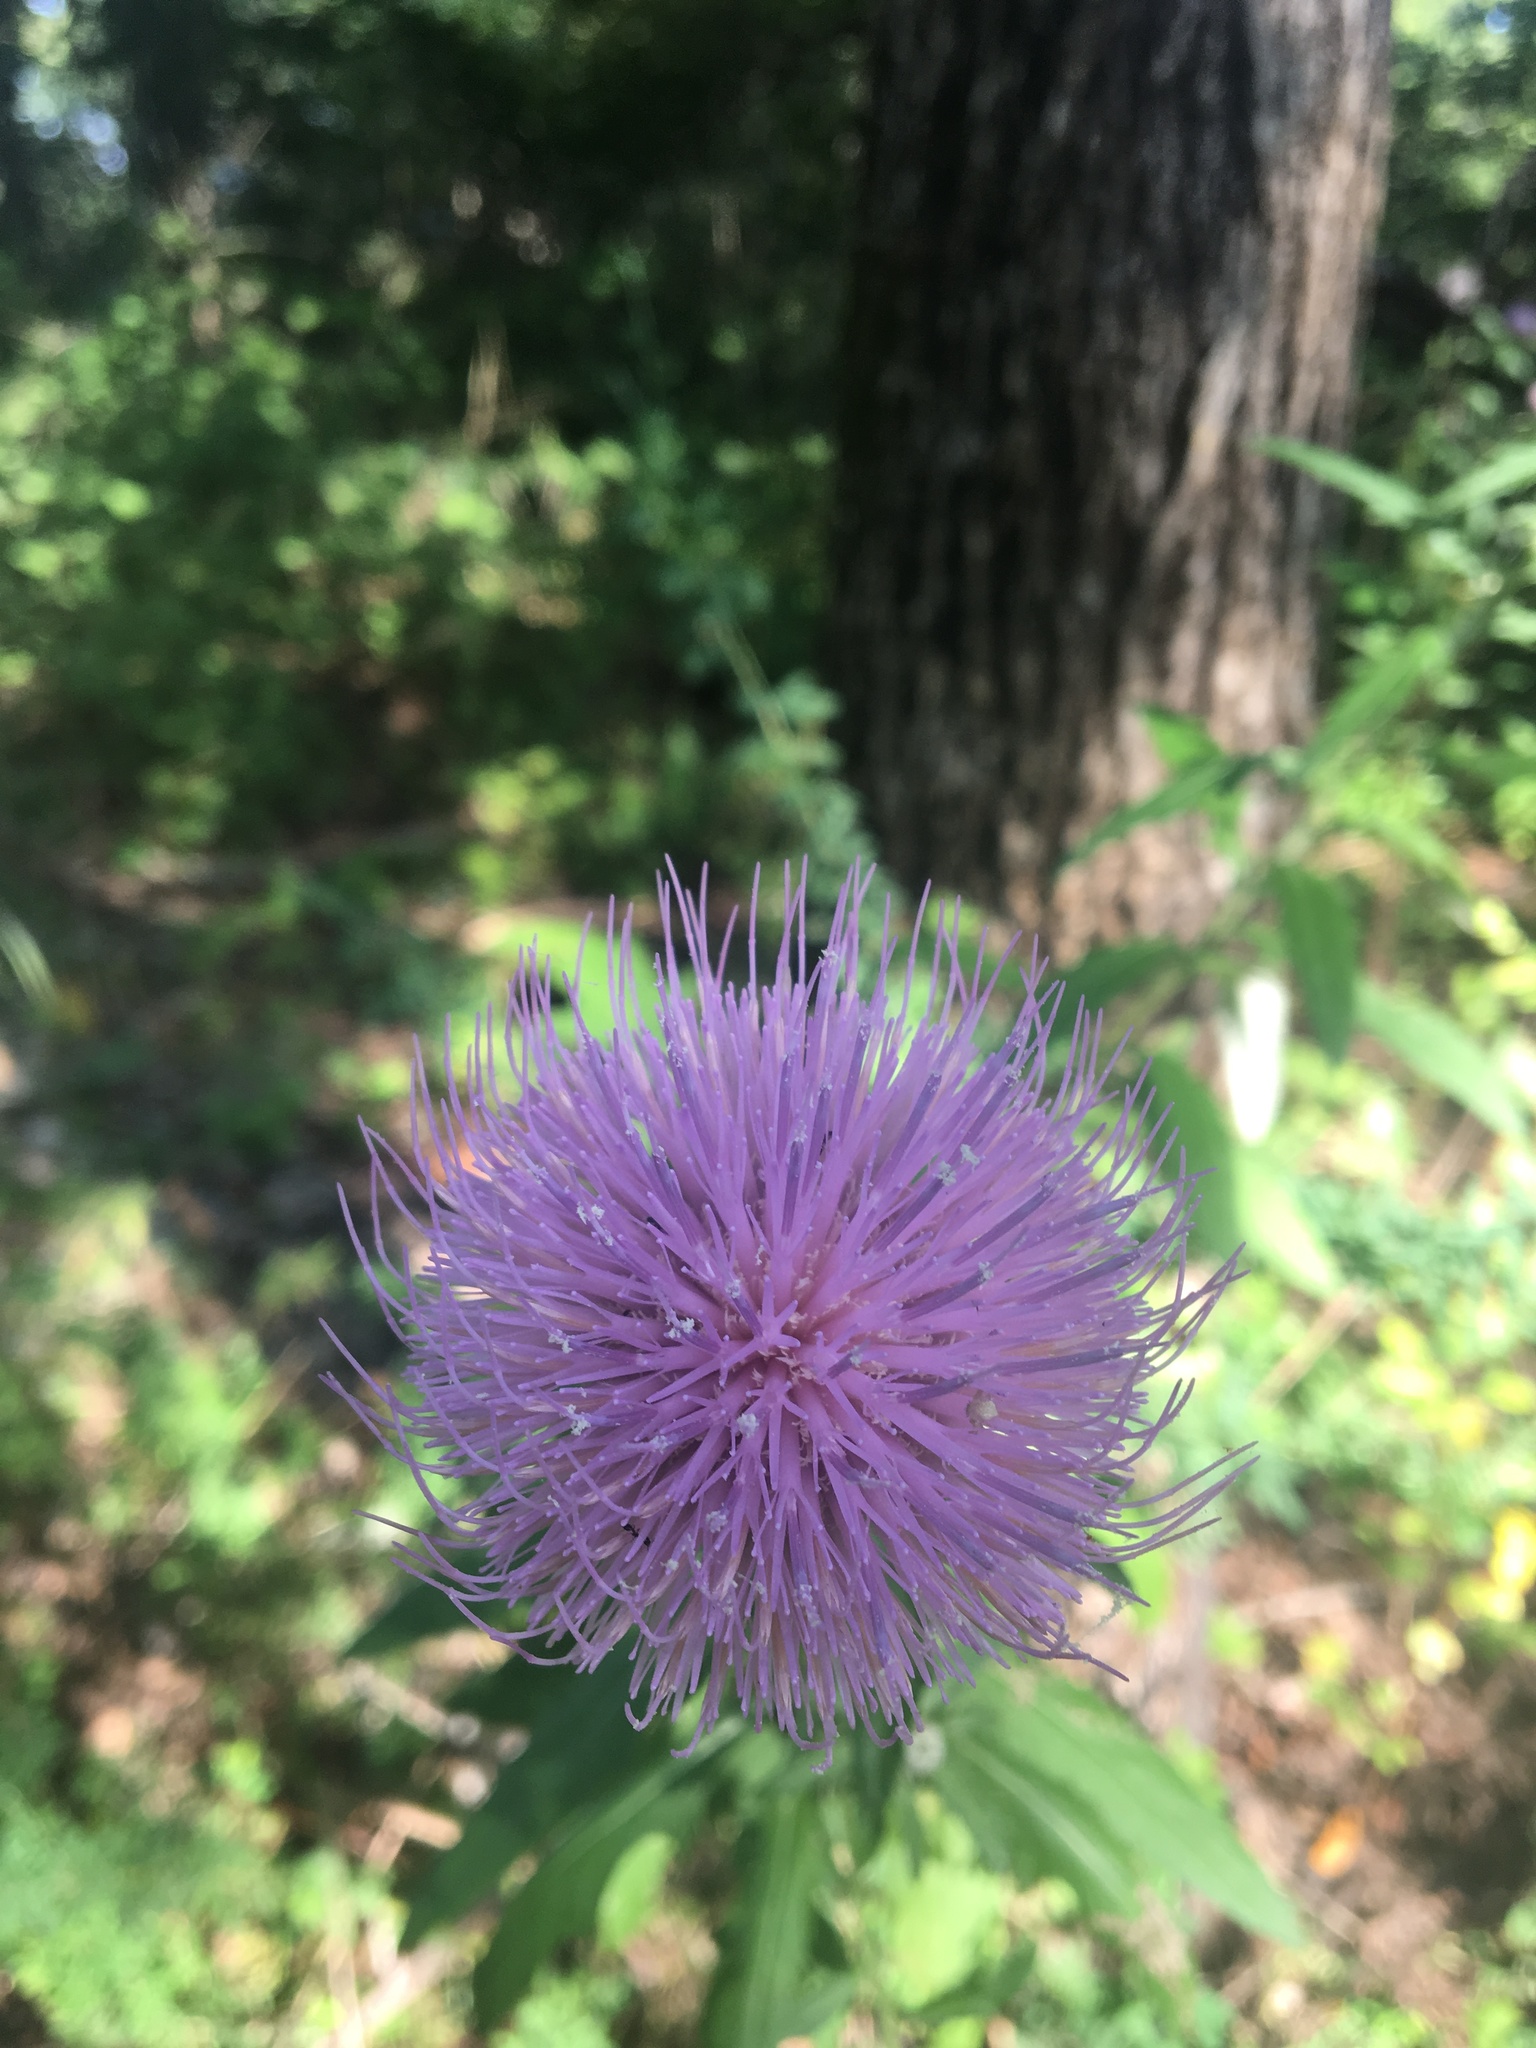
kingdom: Plantae
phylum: Tracheophyta
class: Magnoliopsida
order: Asterales
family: Asteraceae
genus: Cirsium
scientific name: Cirsium altissimum
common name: Roadside thistle
